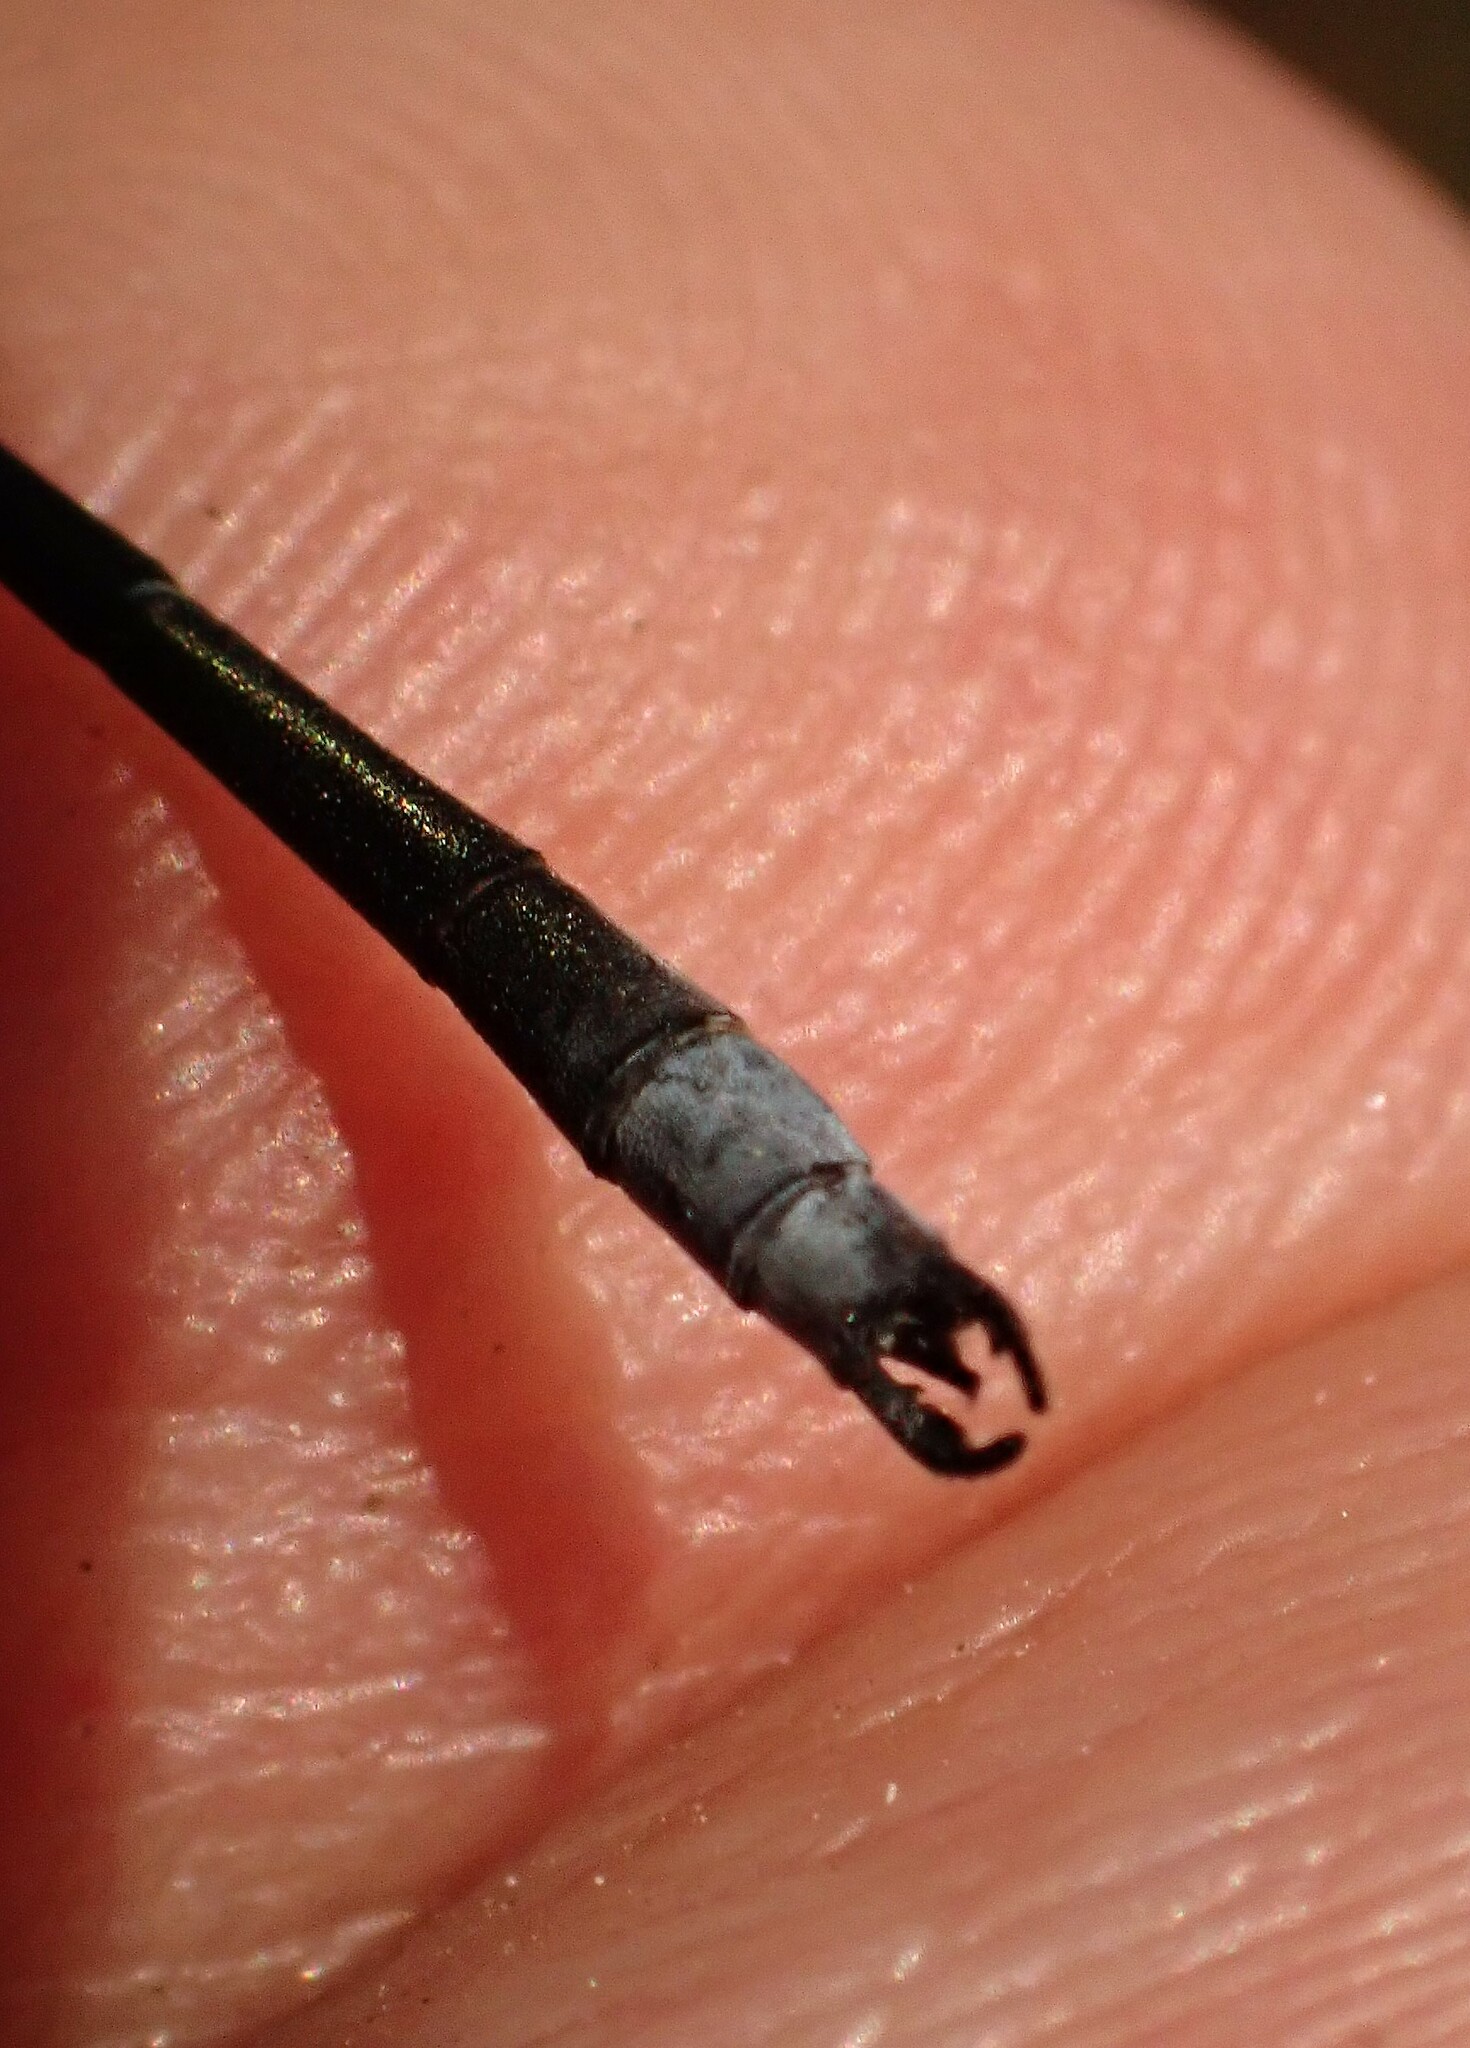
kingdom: Animalia
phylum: Arthropoda
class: Insecta
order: Odonata
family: Lestidae
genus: Lestes
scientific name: Lestes congener
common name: Spotted spreadwing
